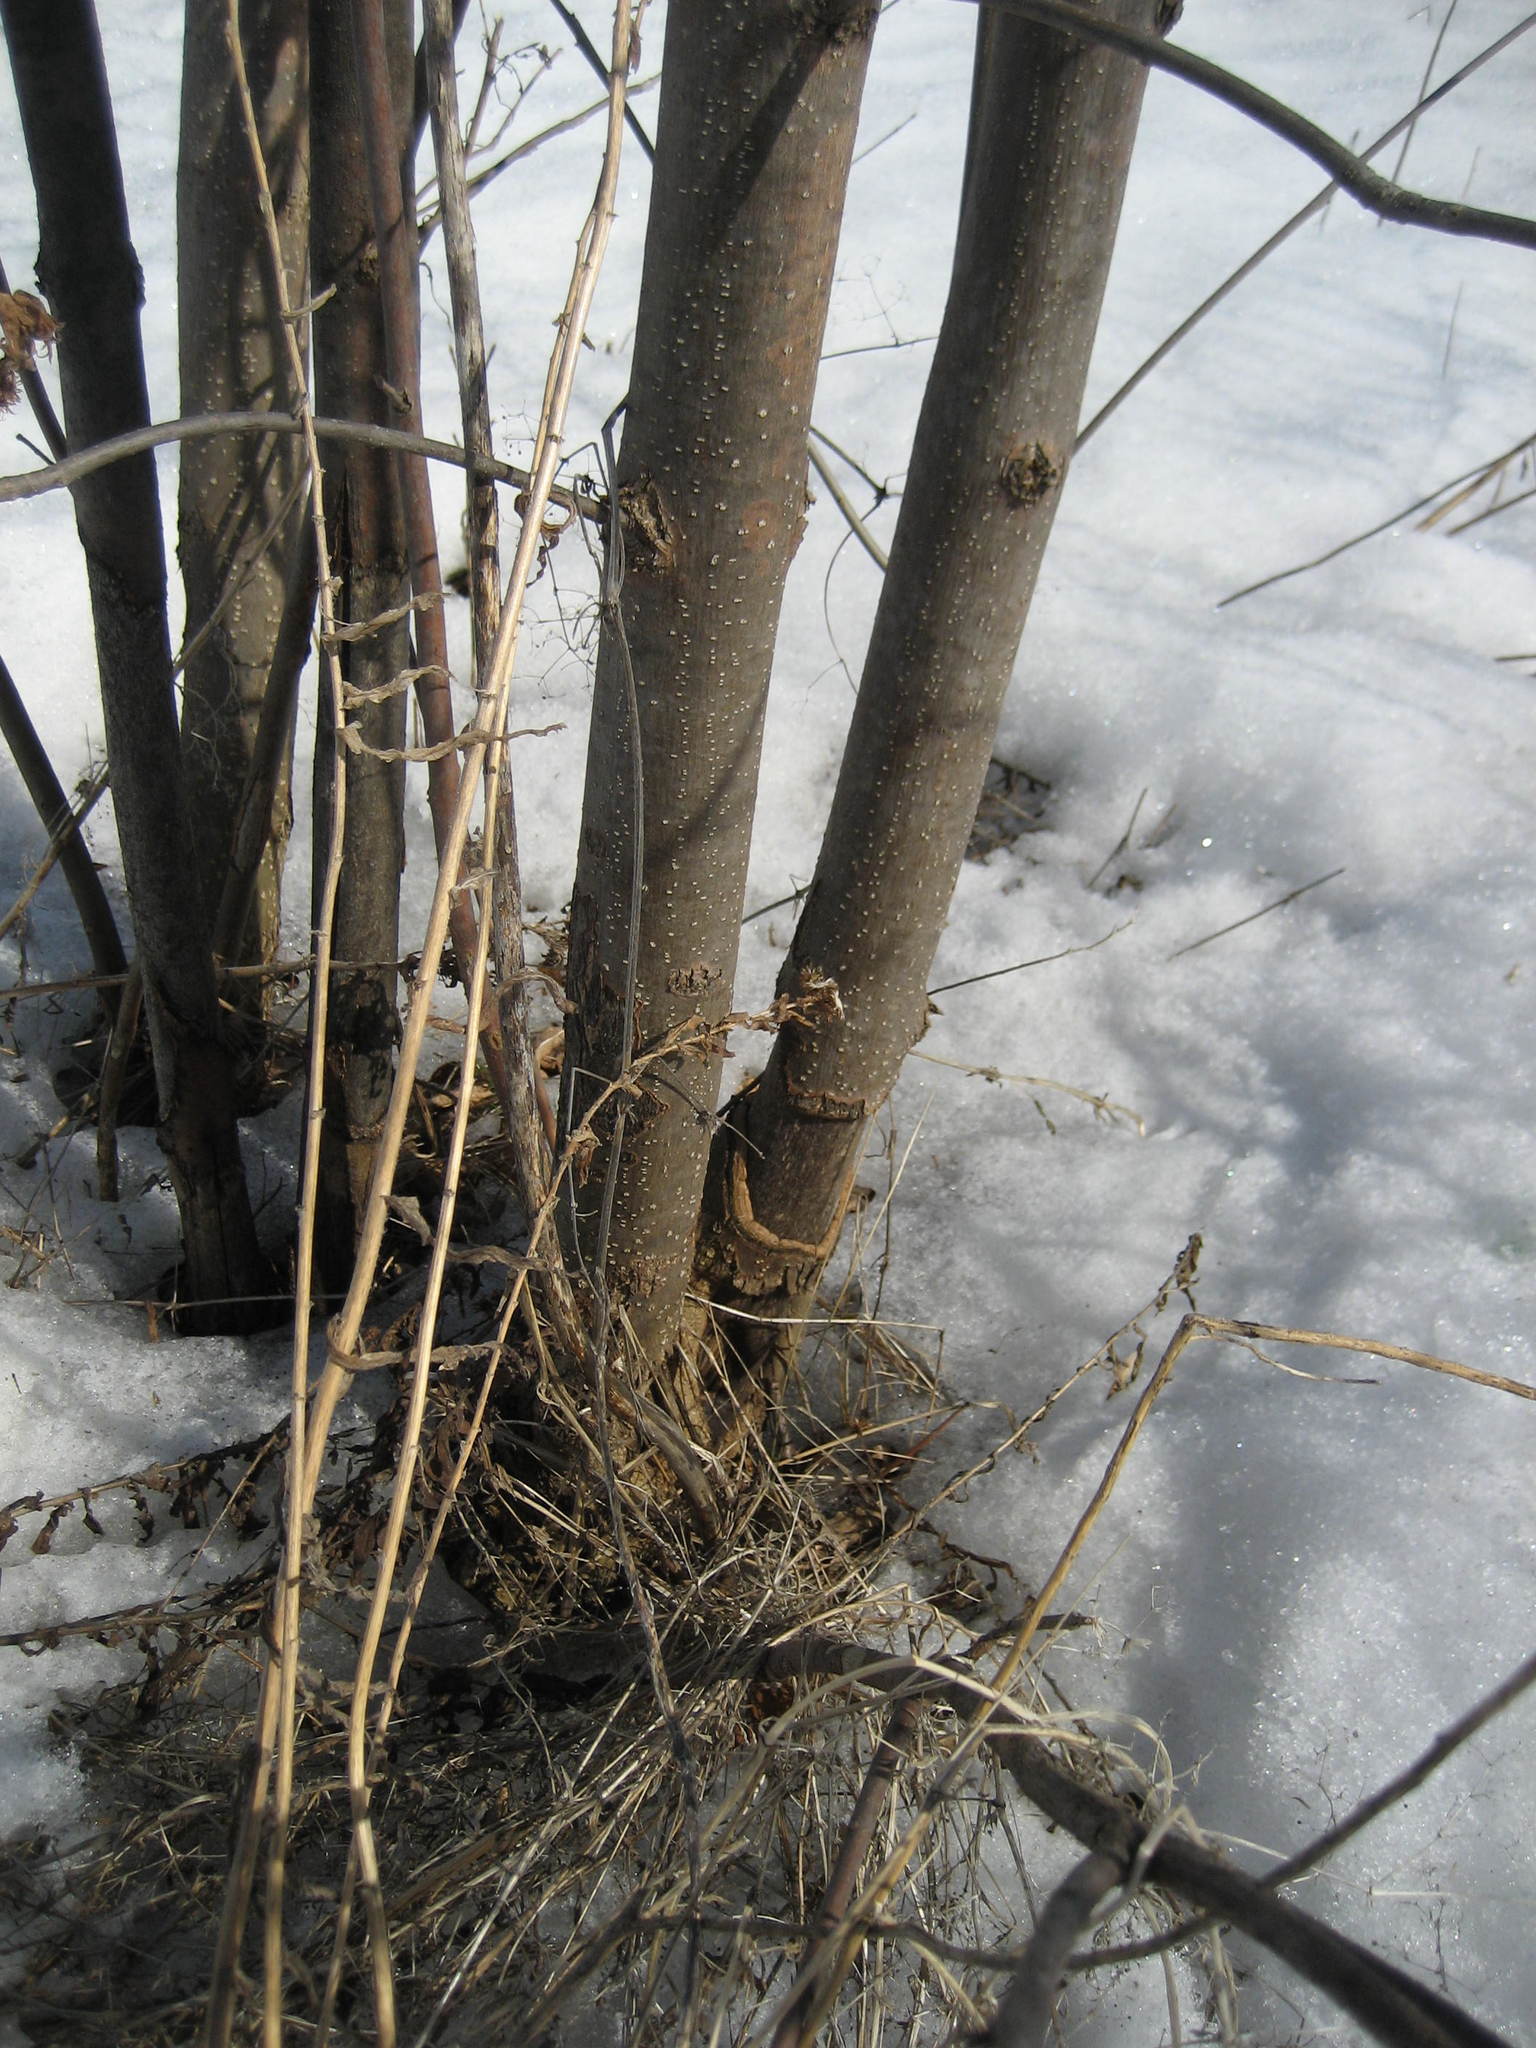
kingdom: Plantae
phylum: Tracheophyta
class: Magnoliopsida
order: Lamiales
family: Oleaceae
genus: Fraxinus
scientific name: Fraxinus pennsylvanica
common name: Green ash
